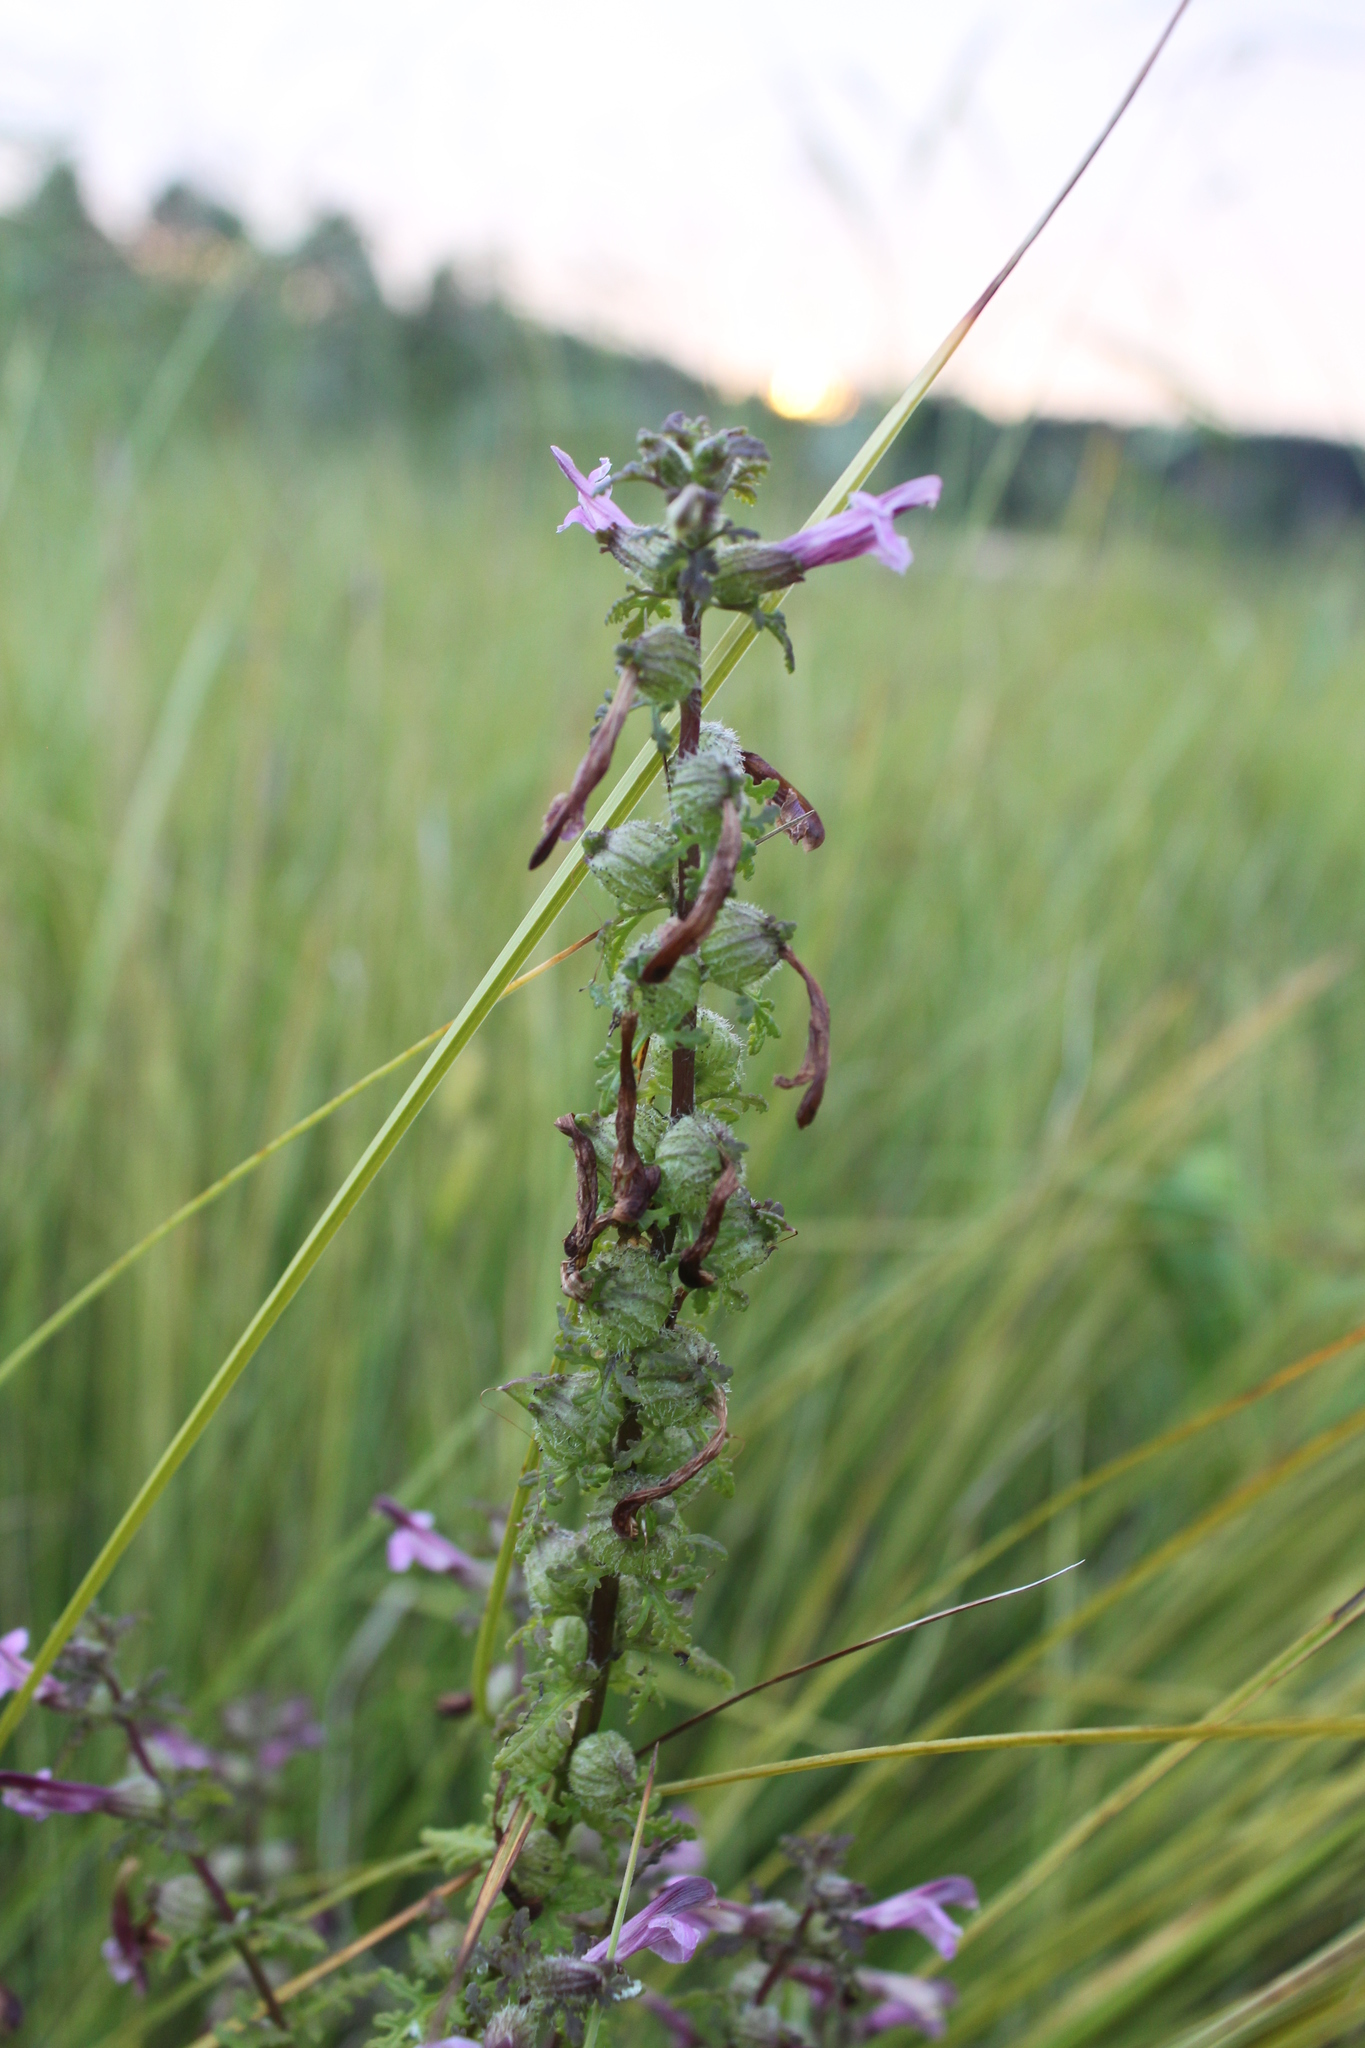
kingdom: Plantae
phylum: Tracheophyta
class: Magnoliopsida
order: Lamiales
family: Orobanchaceae
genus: Pedicularis
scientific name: Pedicularis karoi
